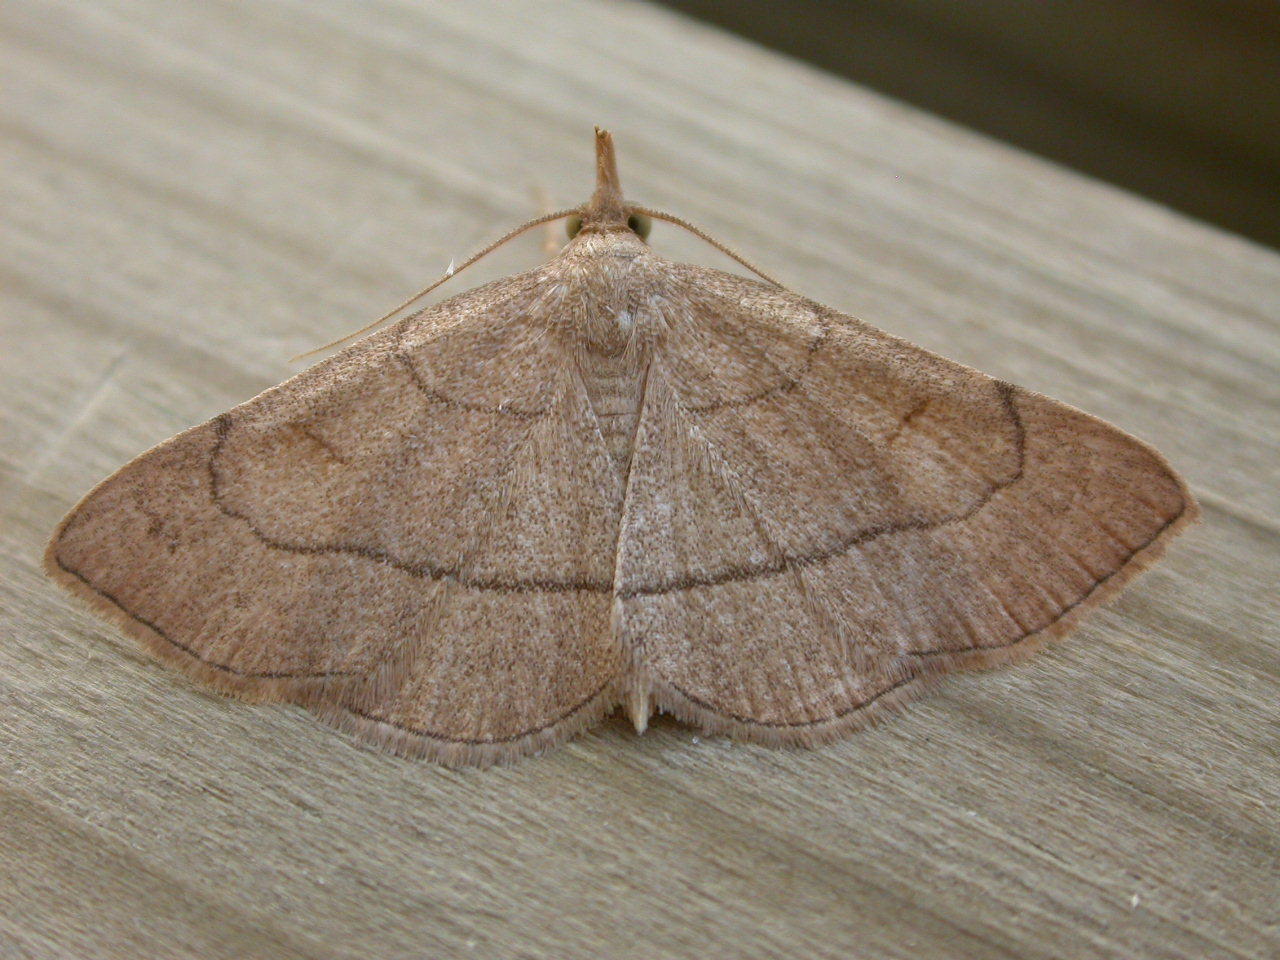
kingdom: Animalia
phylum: Arthropoda
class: Insecta
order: Lepidoptera
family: Erebidae
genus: Paracolax
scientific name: Paracolax tristalis
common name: Clay fan-foot
